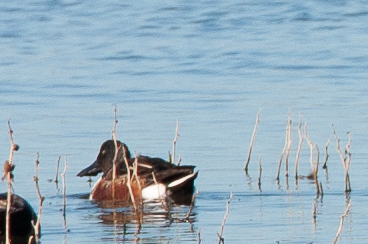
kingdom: Animalia
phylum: Chordata
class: Aves
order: Anseriformes
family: Anatidae
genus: Spatula
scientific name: Spatula clypeata
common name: Northern shoveler
